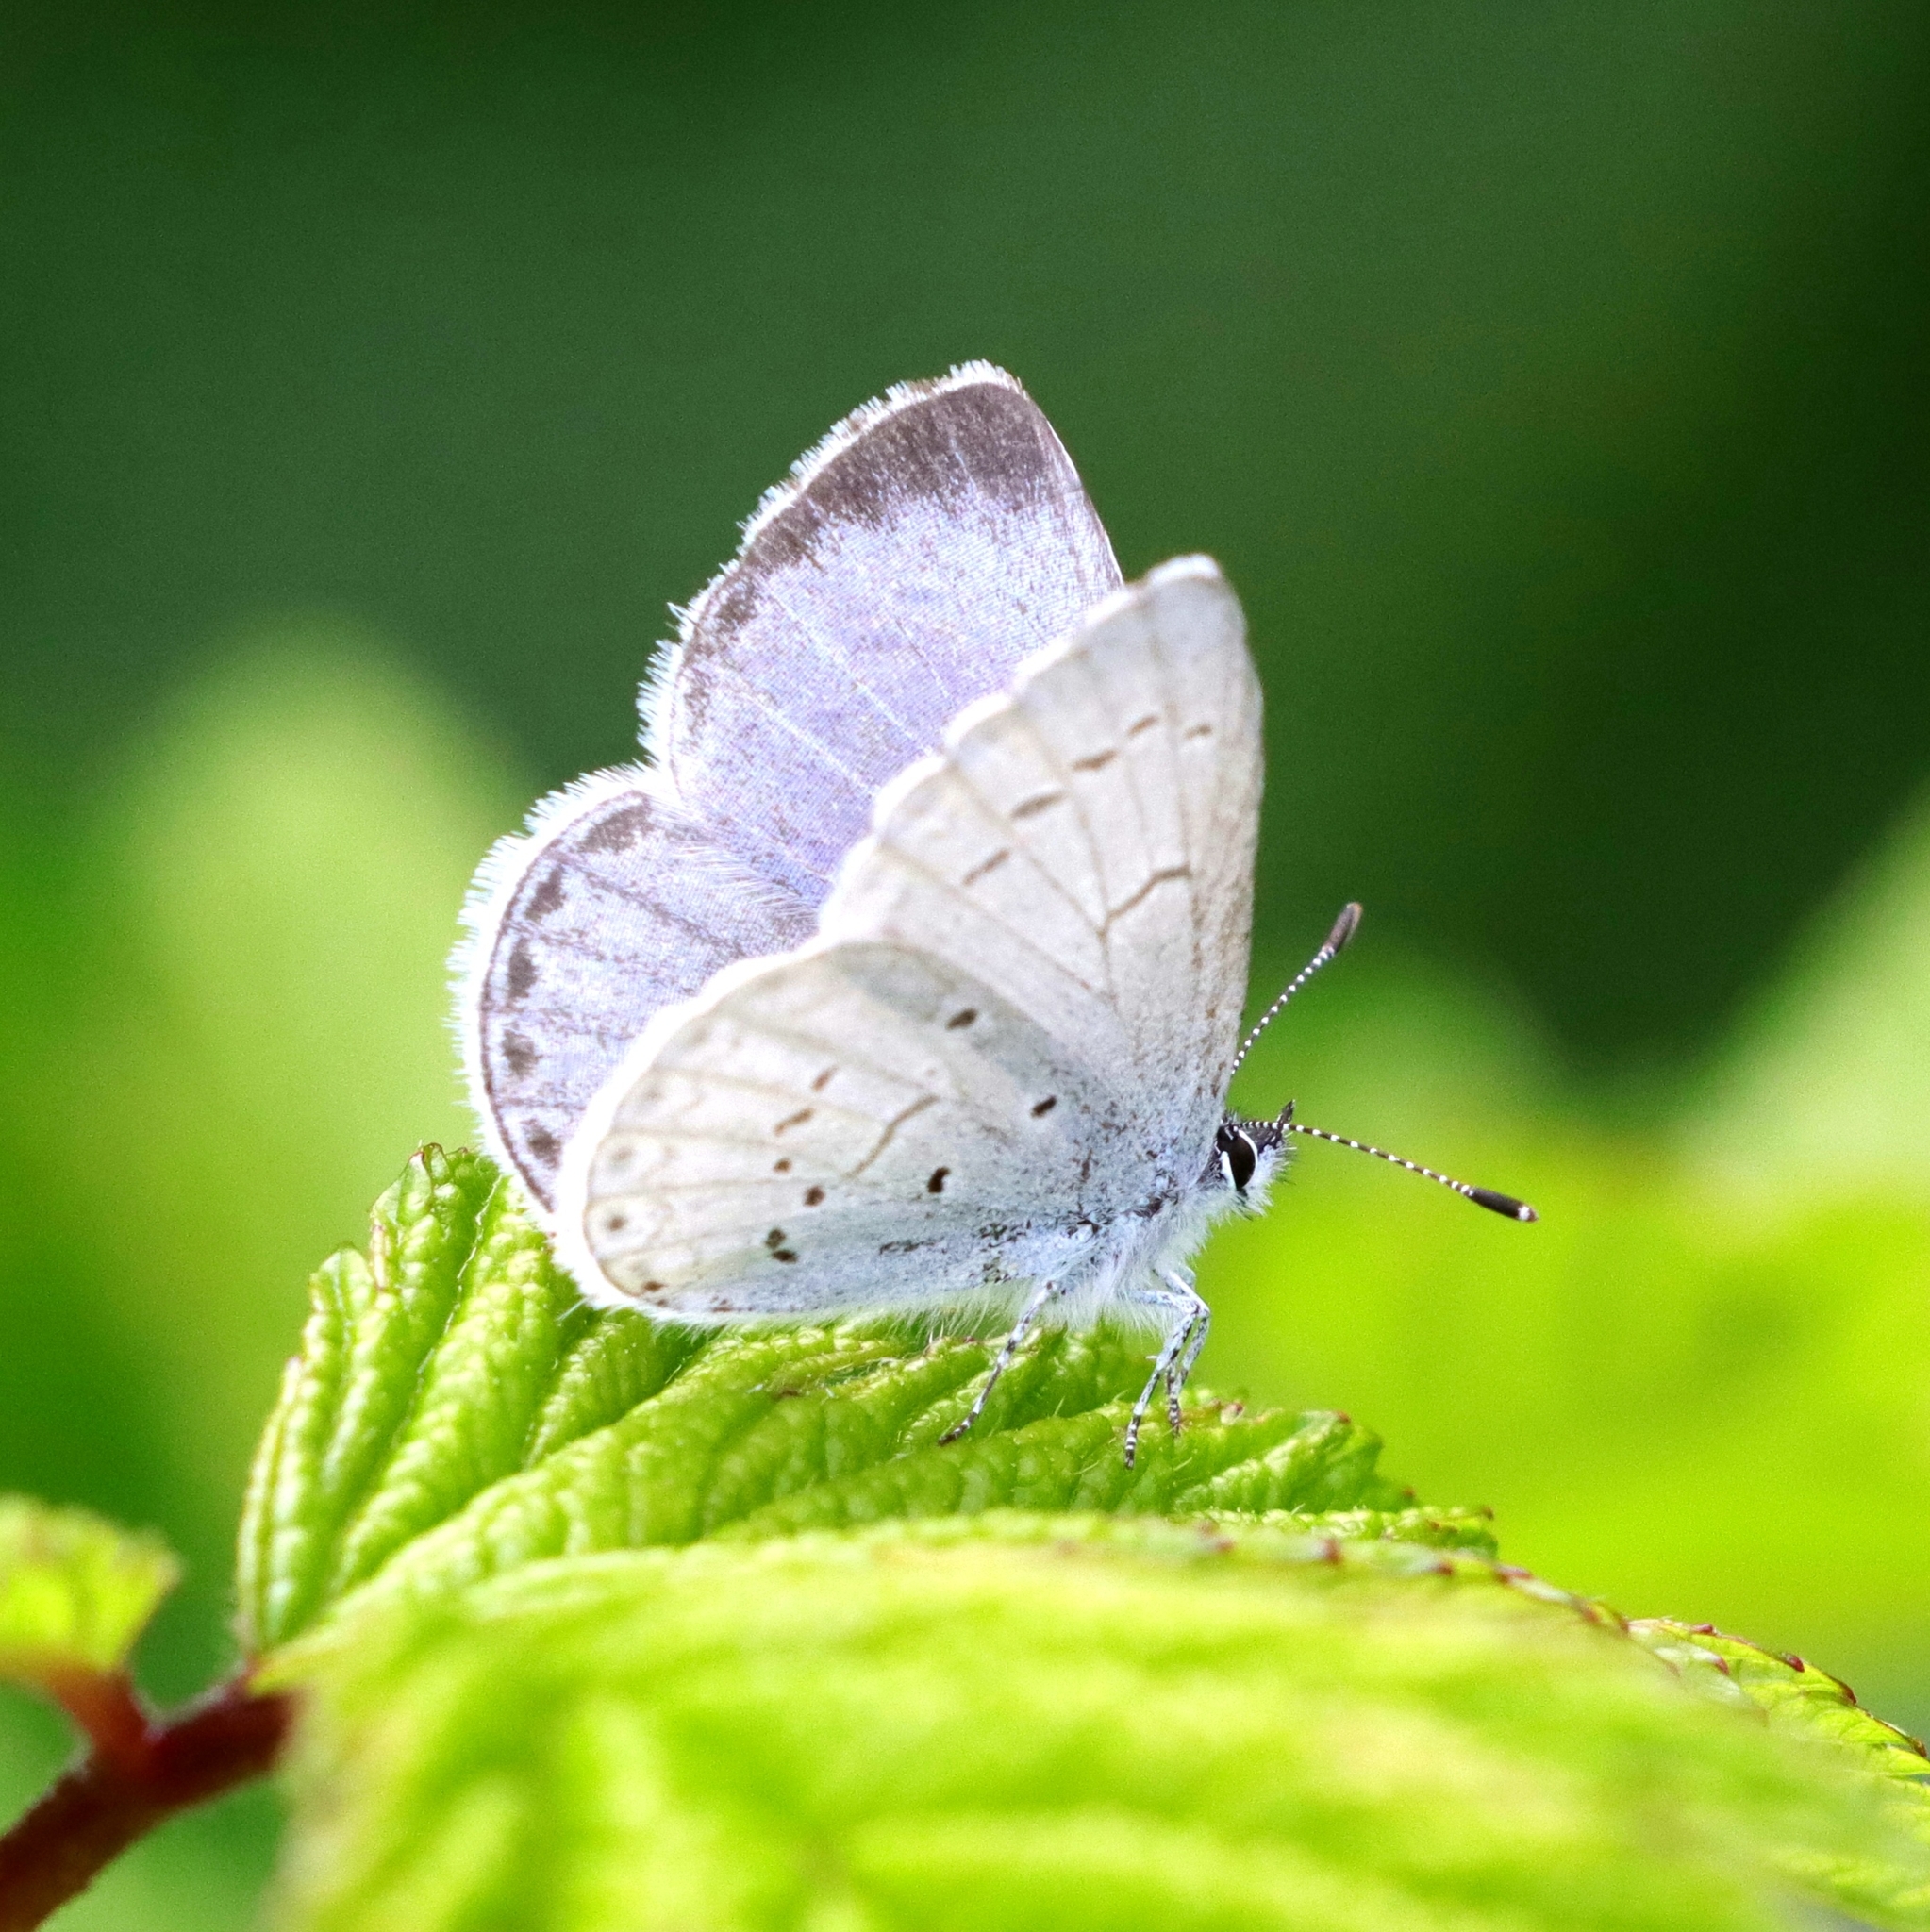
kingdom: Animalia
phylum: Arthropoda
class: Insecta
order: Lepidoptera
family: Lycaenidae
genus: Celastrina
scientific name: Celastrina ladon
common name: Spring azure
